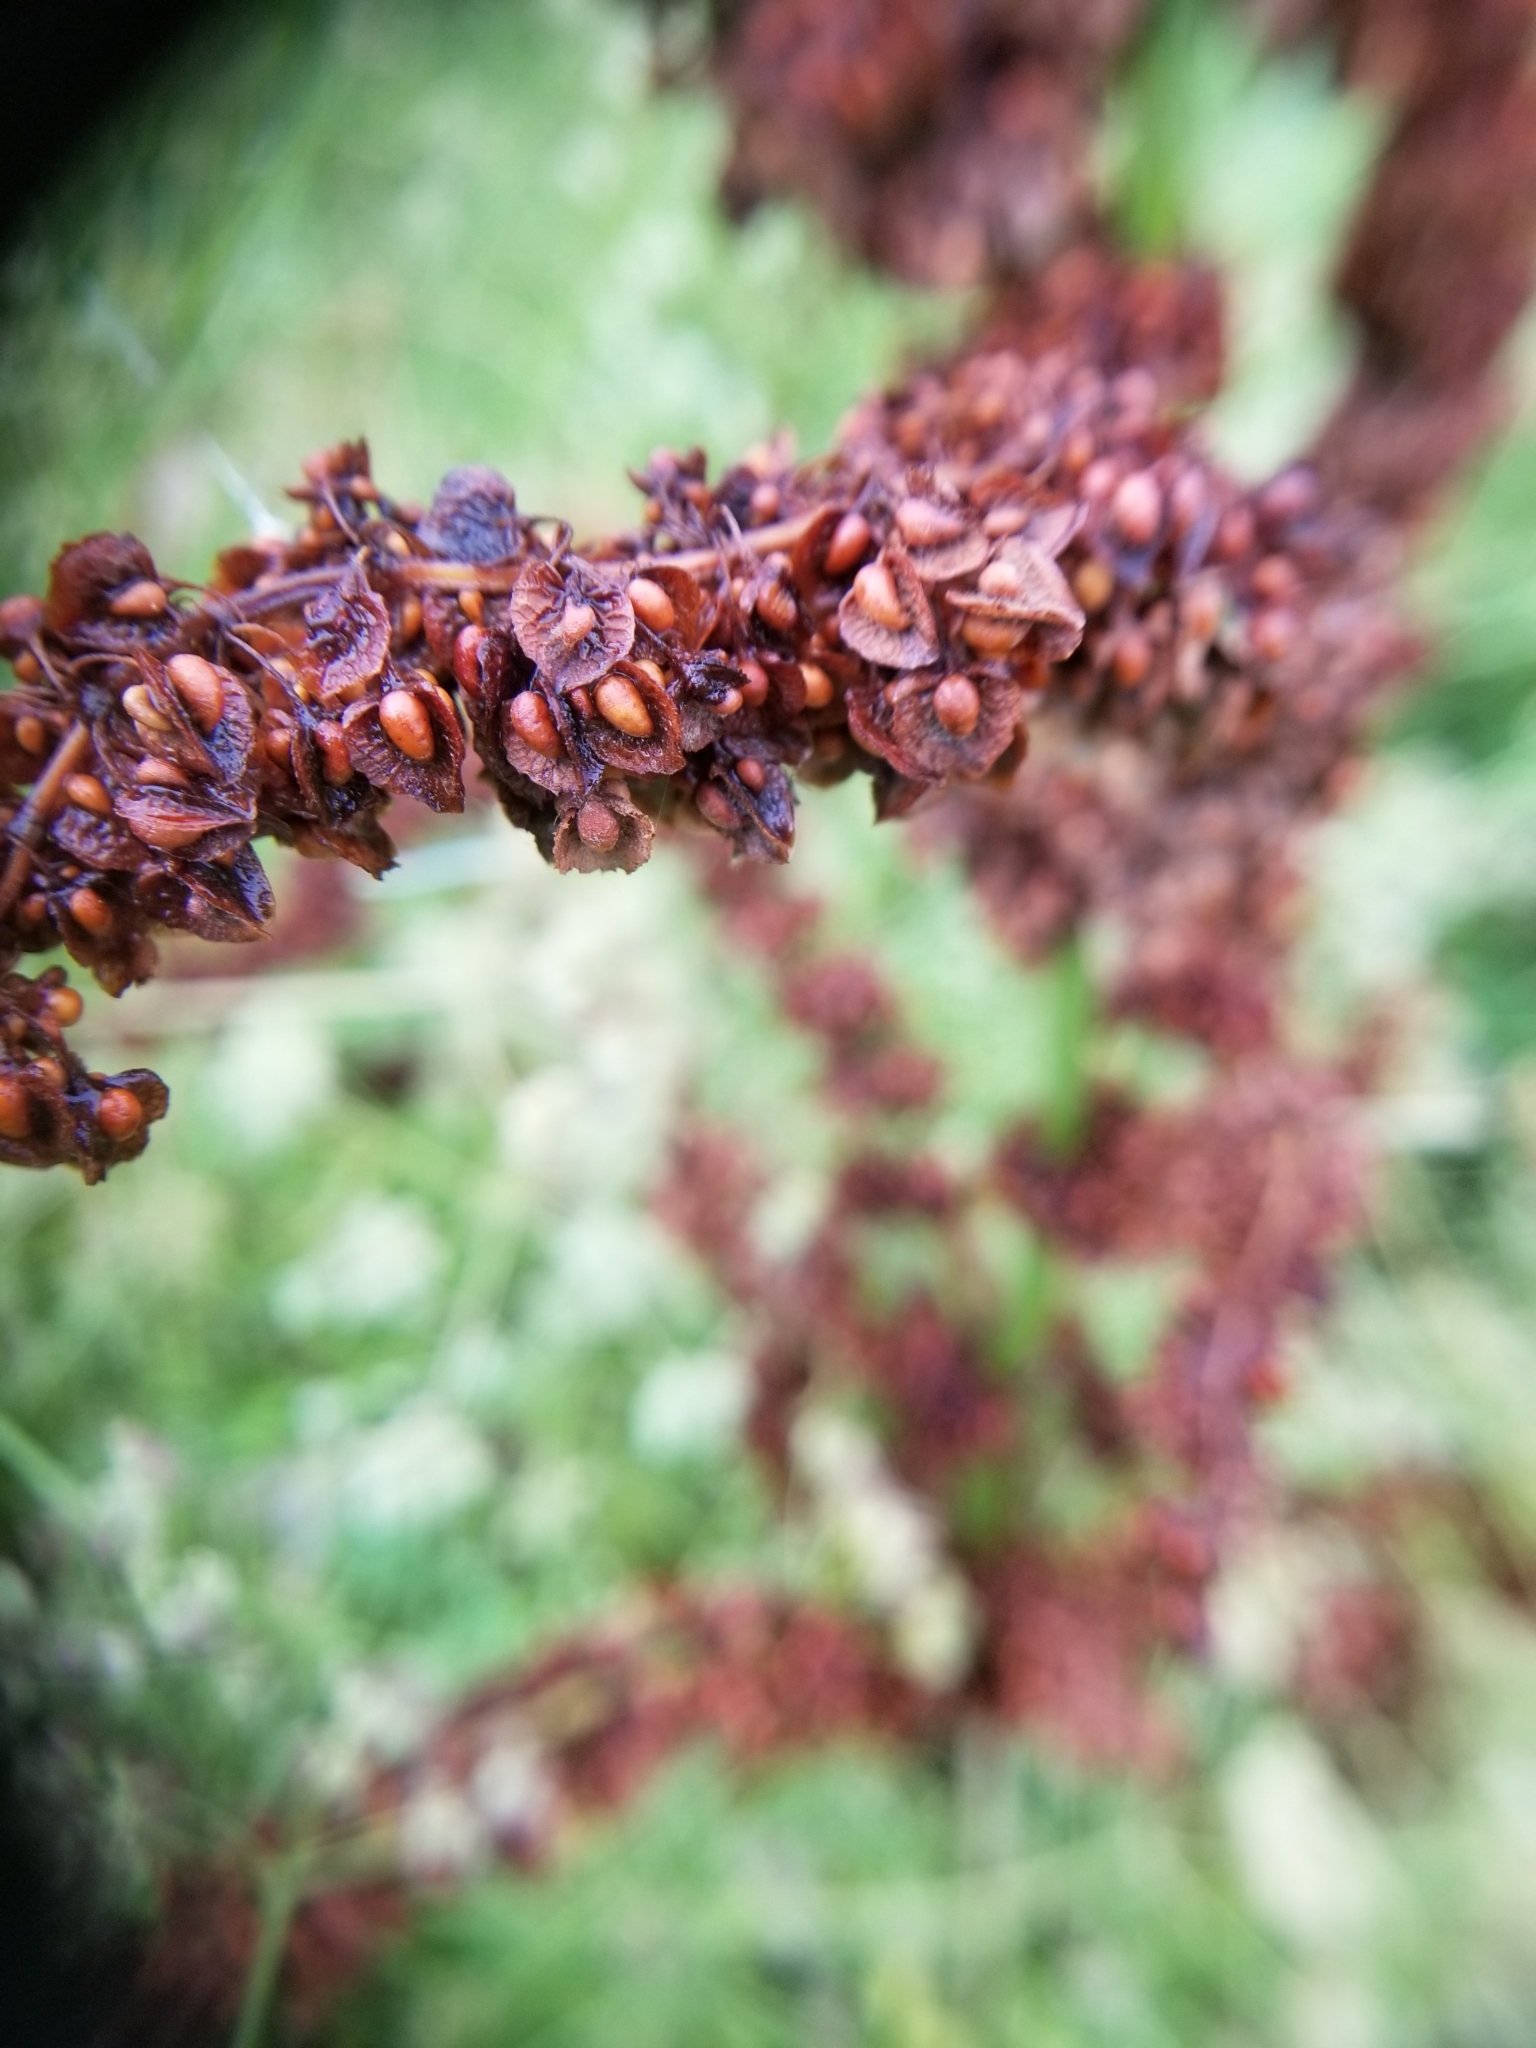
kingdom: Plantae
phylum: Tracheophyta
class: Magnoliopsida
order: Caryophyllales
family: Polygonaceae
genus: Rumex
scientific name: Rumex crispus
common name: Curled dock
